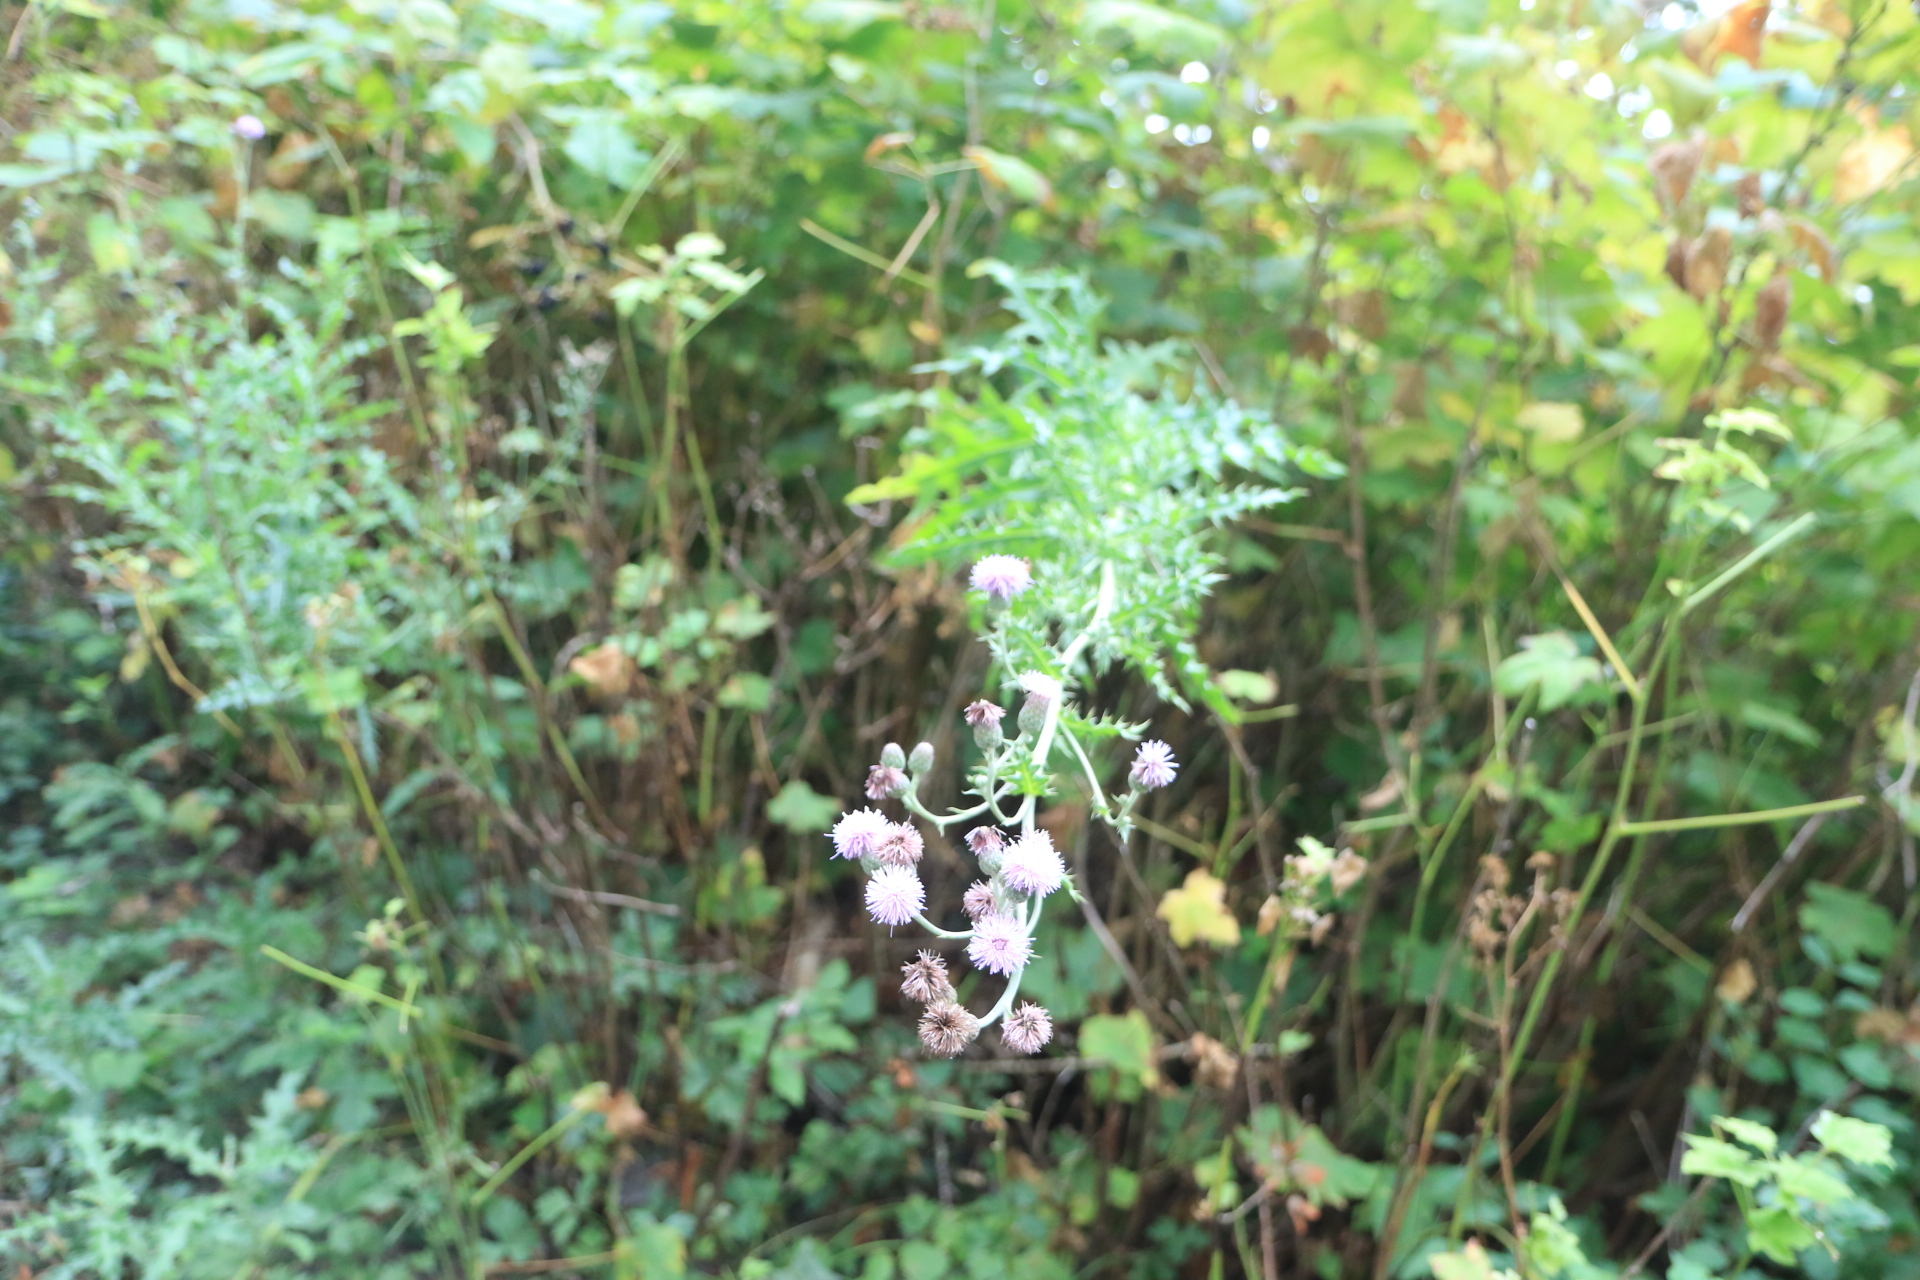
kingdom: Plantae
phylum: Tracheophyta
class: Magnoliopsida
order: Asterales
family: Asteraceae
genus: Cirsium
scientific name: Cirsium arvense
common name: Creeping thistle
